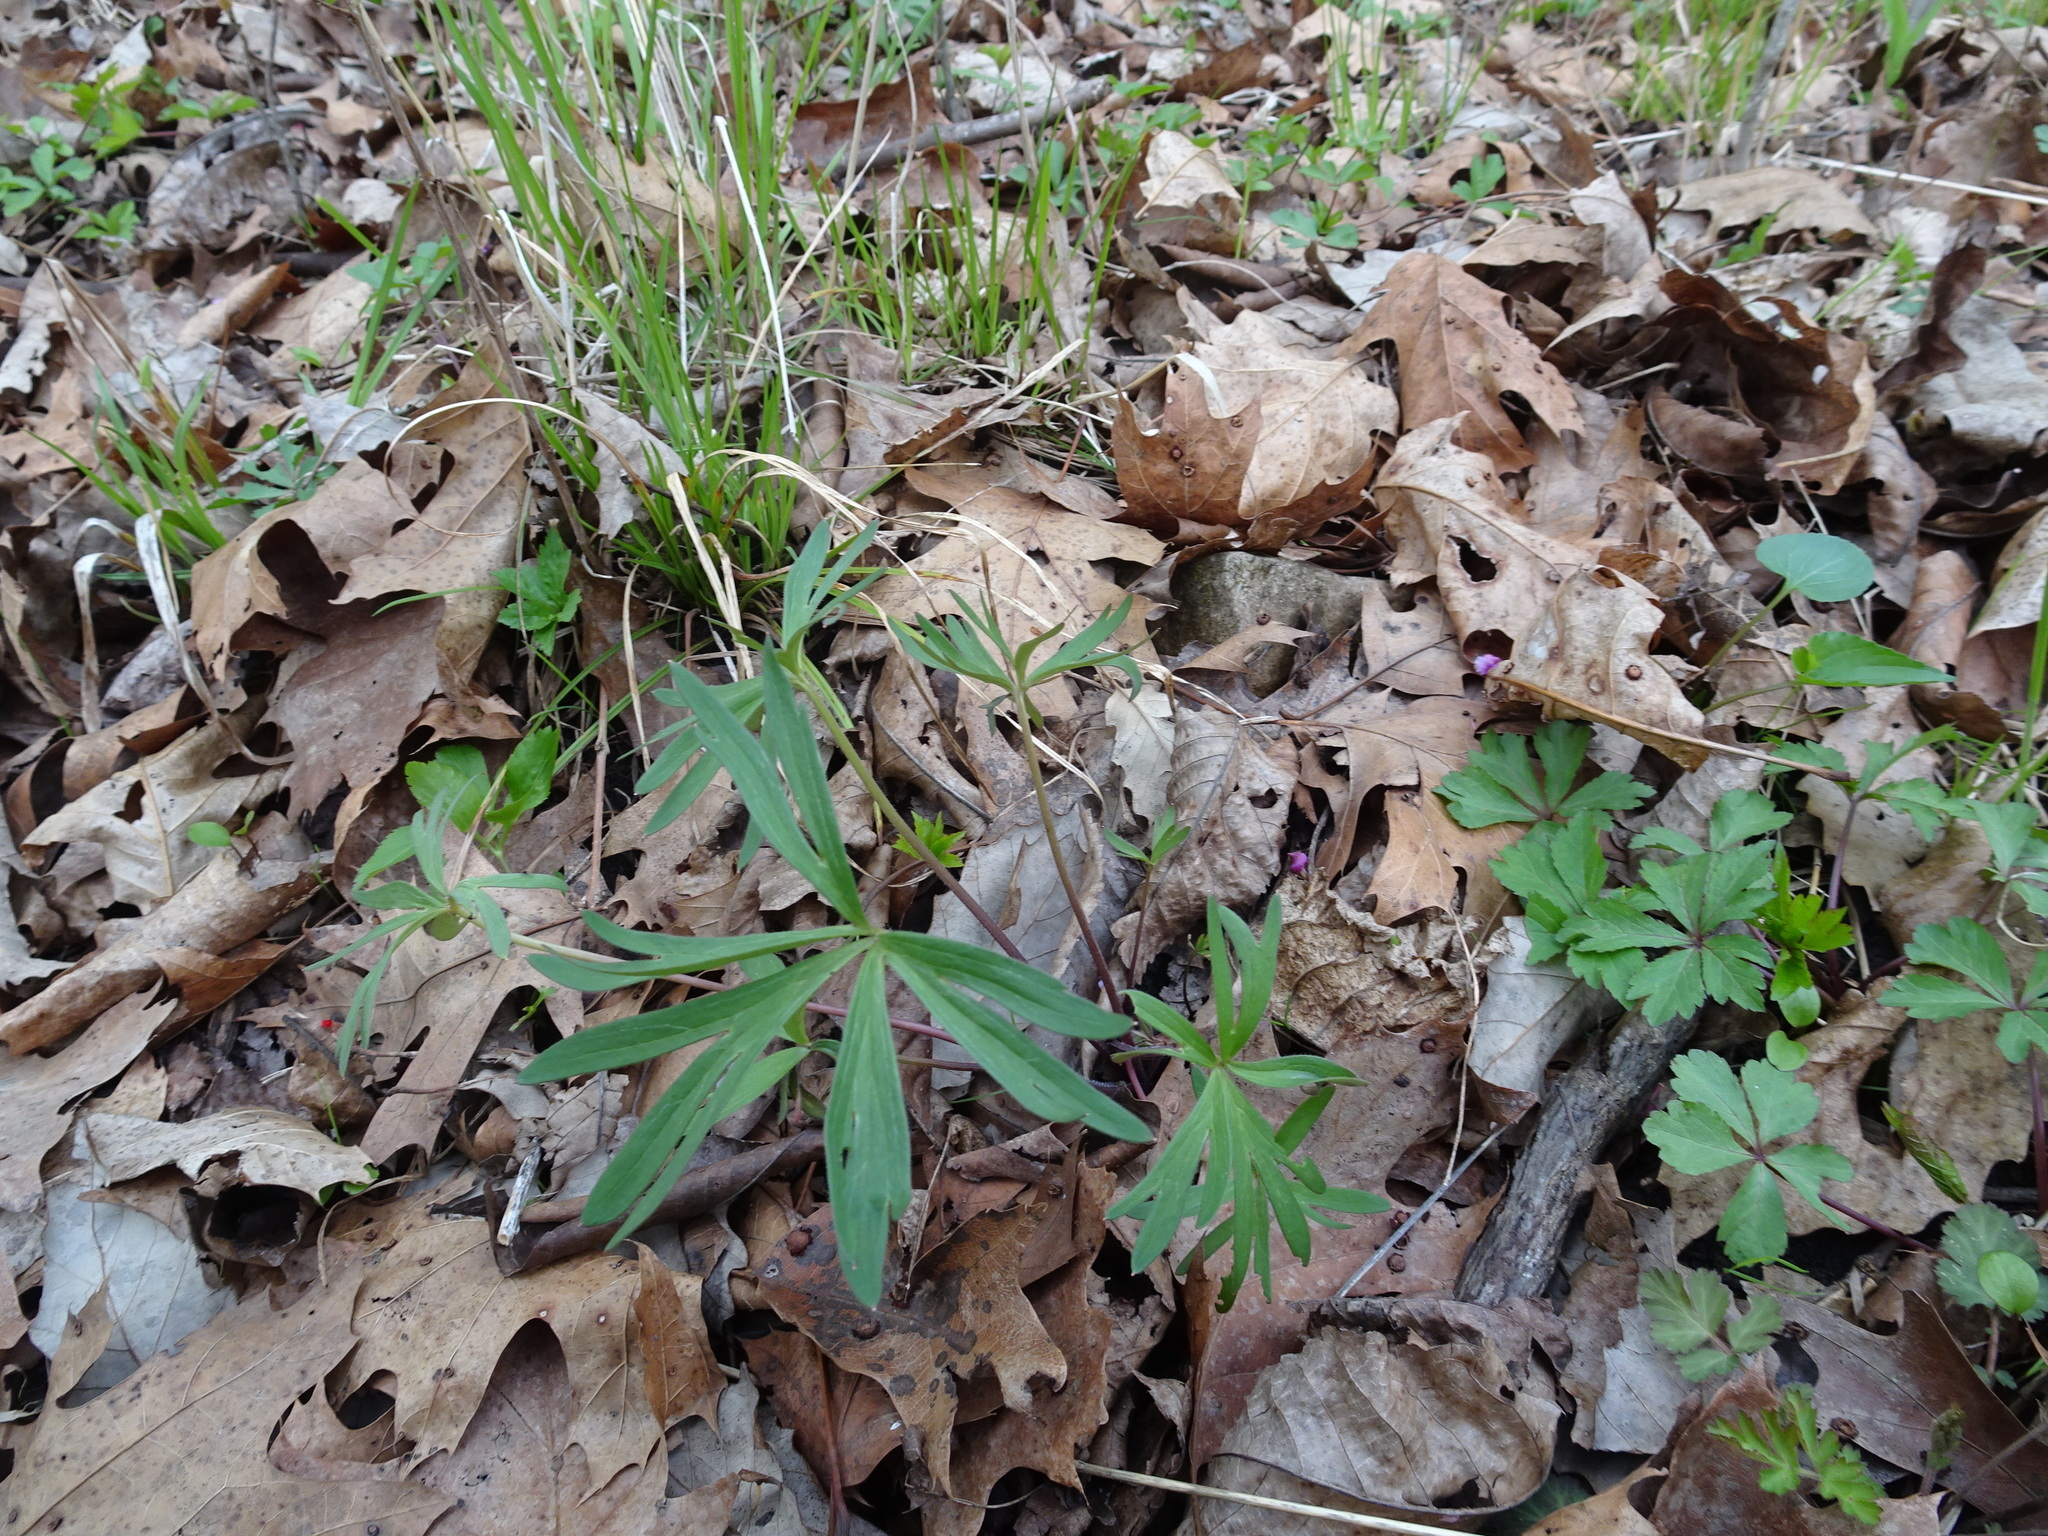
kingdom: Plantae
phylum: Tracheophyta
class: Magnoliopsida
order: Ranunculales
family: Ranunculaceae
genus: Delphinium
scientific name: Delphinium tricorne
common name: Dwarf larkspur
